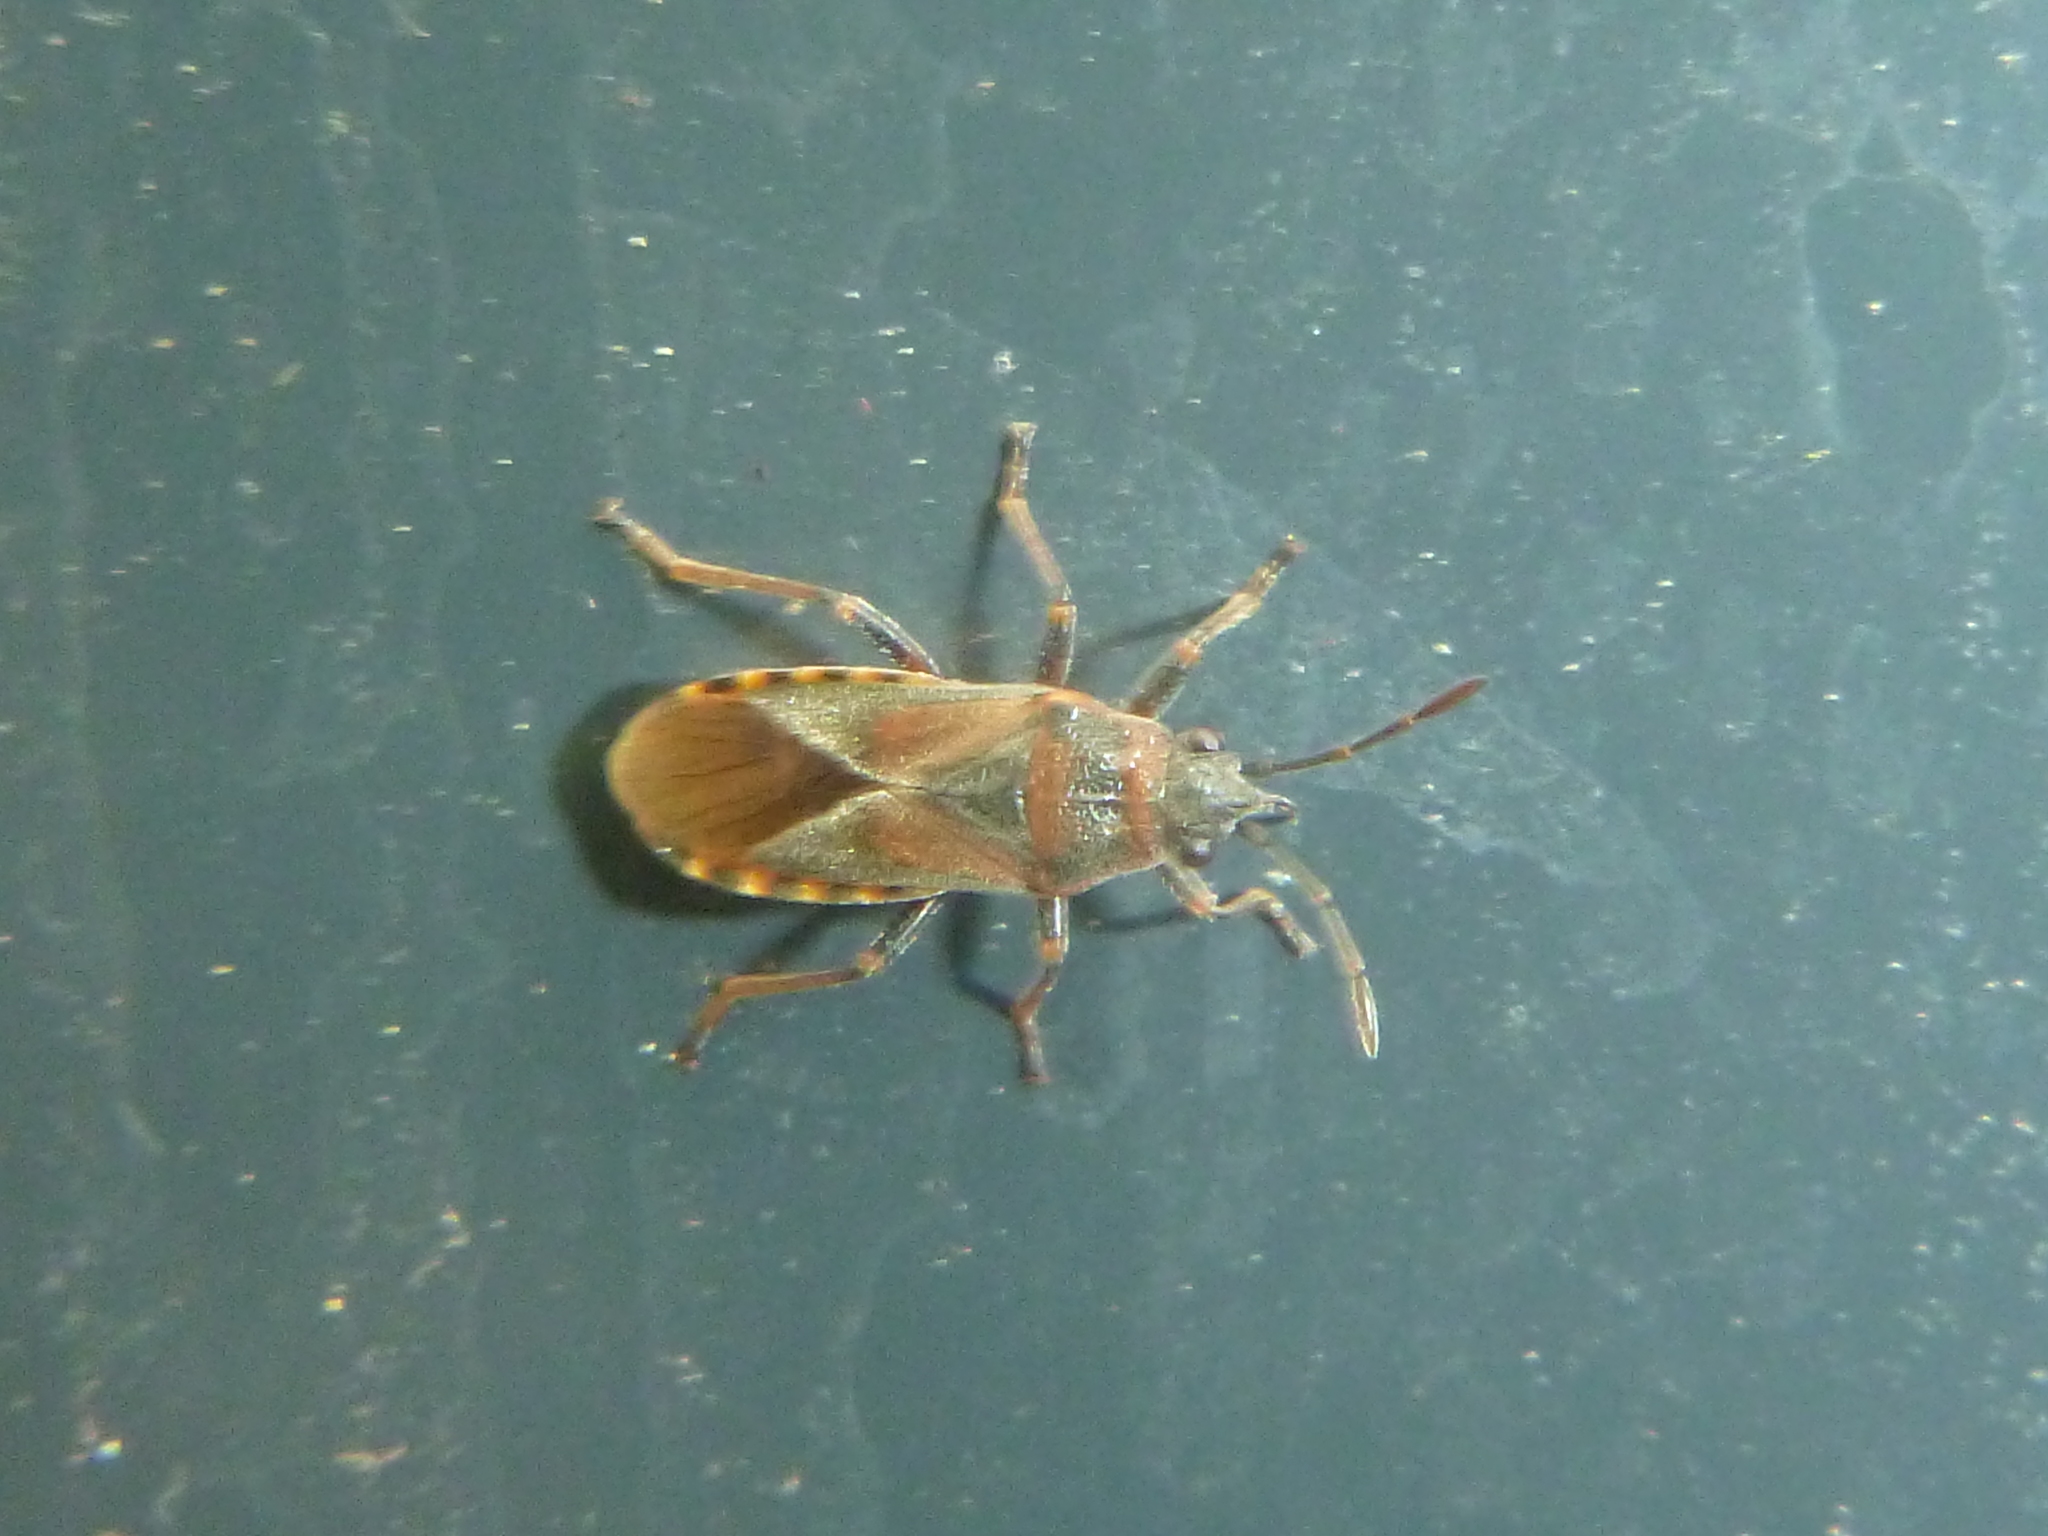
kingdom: Animalia
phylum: Arthropoda
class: Insecta
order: Hemiptera
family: Lygaeidae
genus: Arocatus
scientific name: Arocatus melanocephalus
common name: Lygaeid bug
